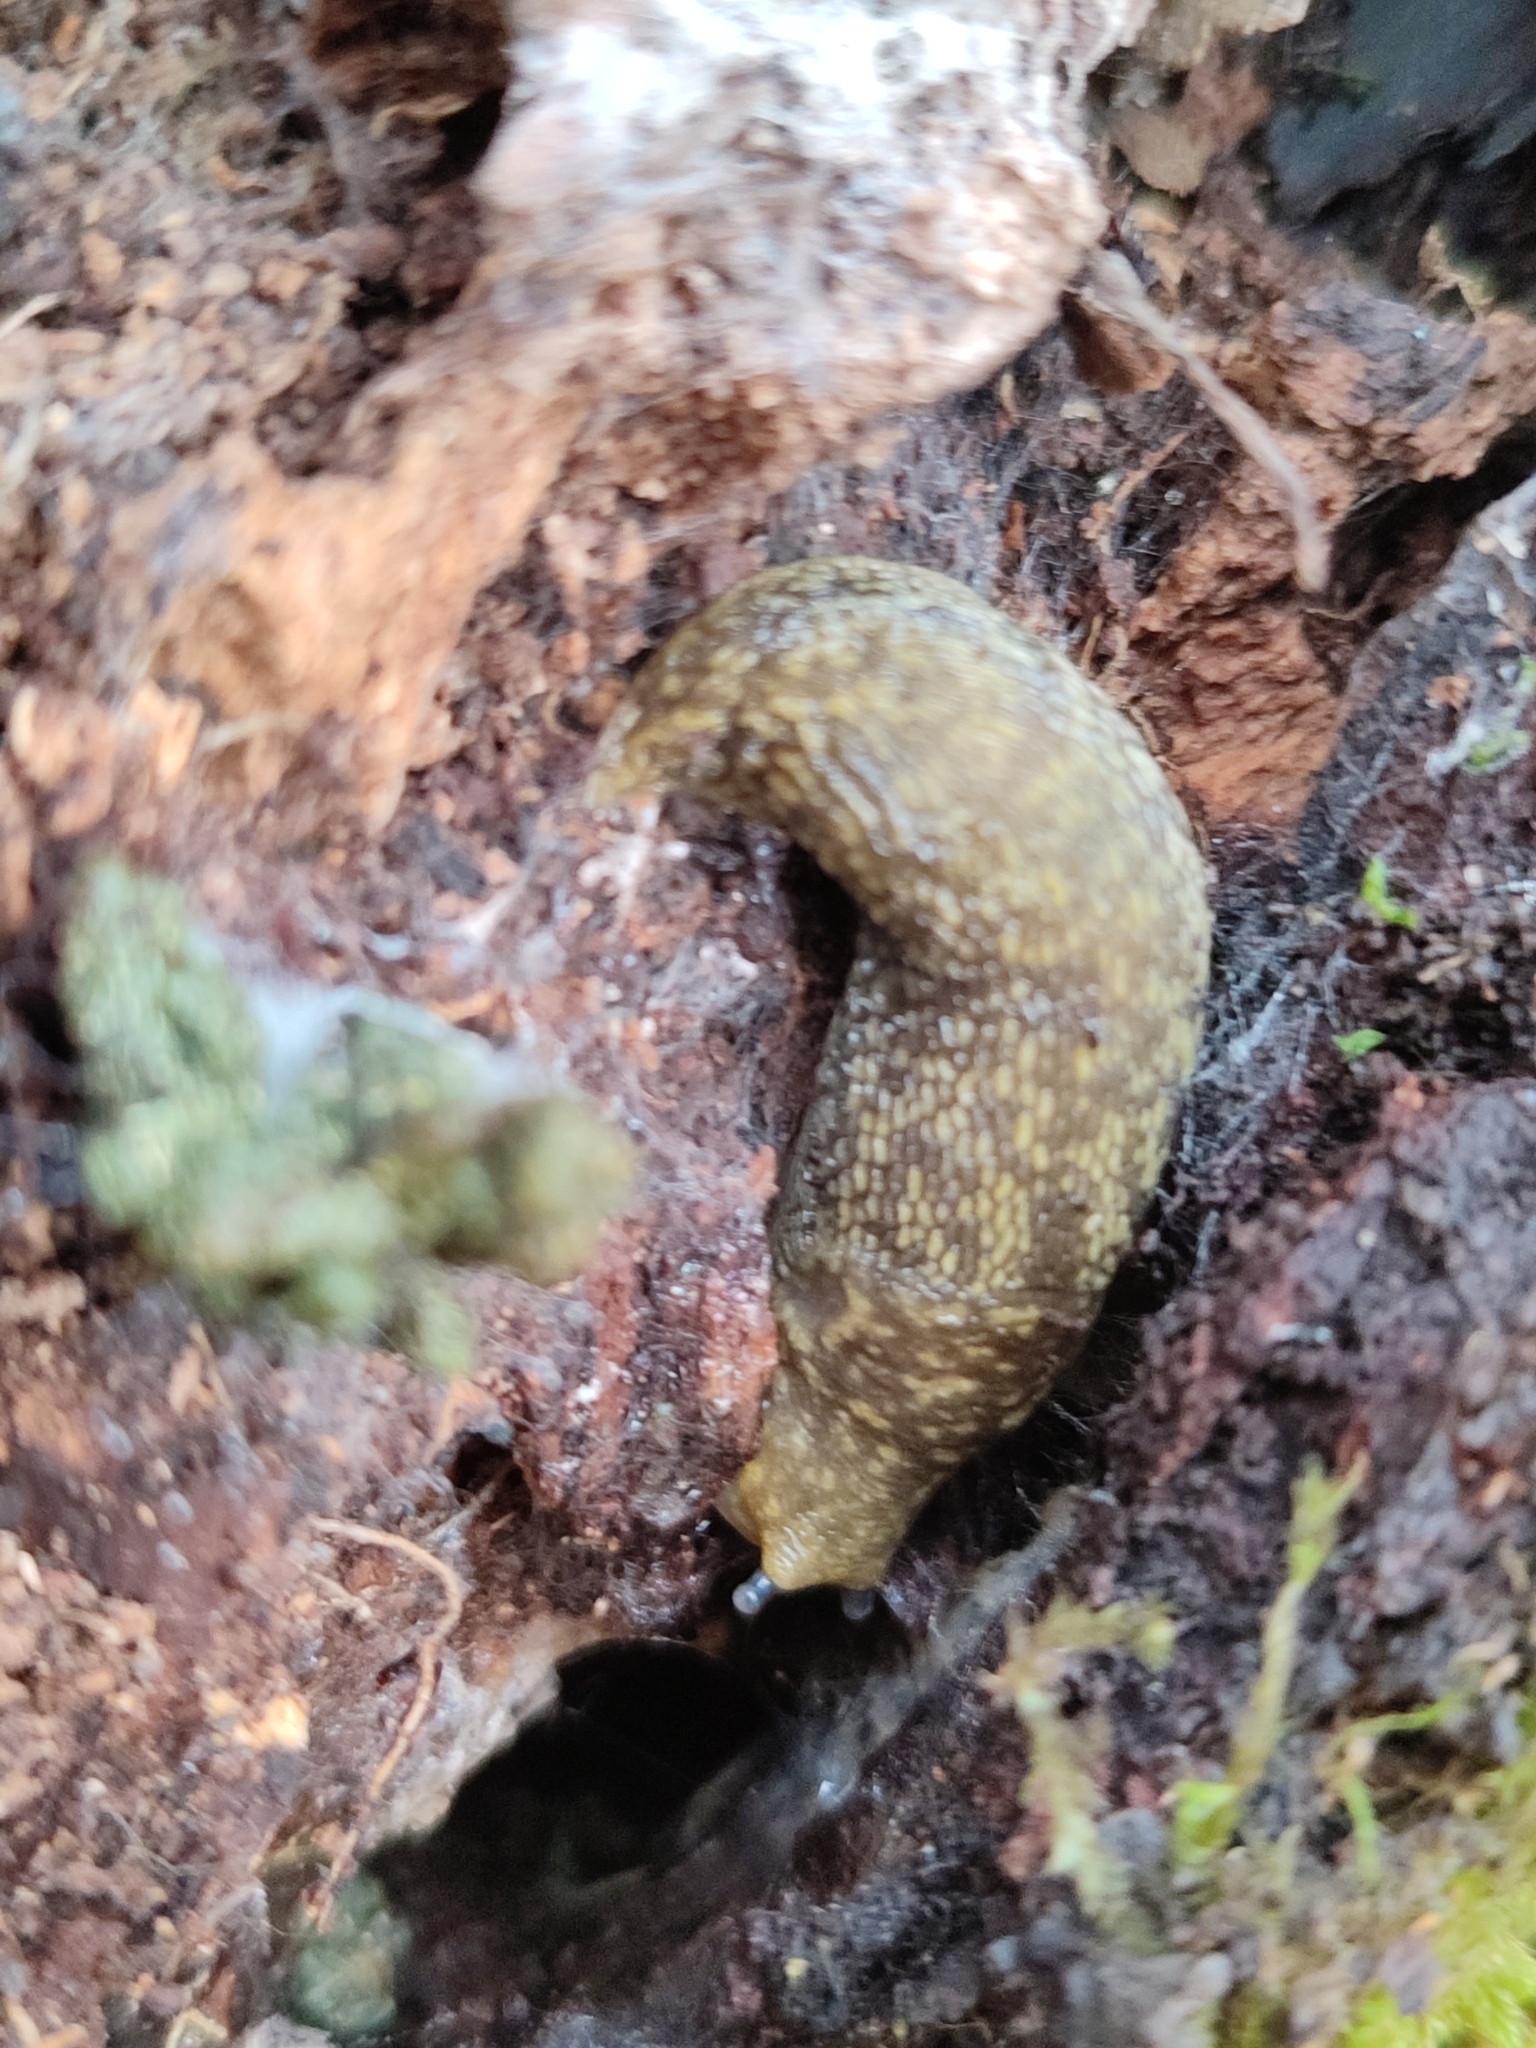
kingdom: Animalia
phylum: Mollusca
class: Gastropoda
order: Stylommatophora
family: Limacidae
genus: Limacus
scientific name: Limacus flavus
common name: Yellow gardenslug
